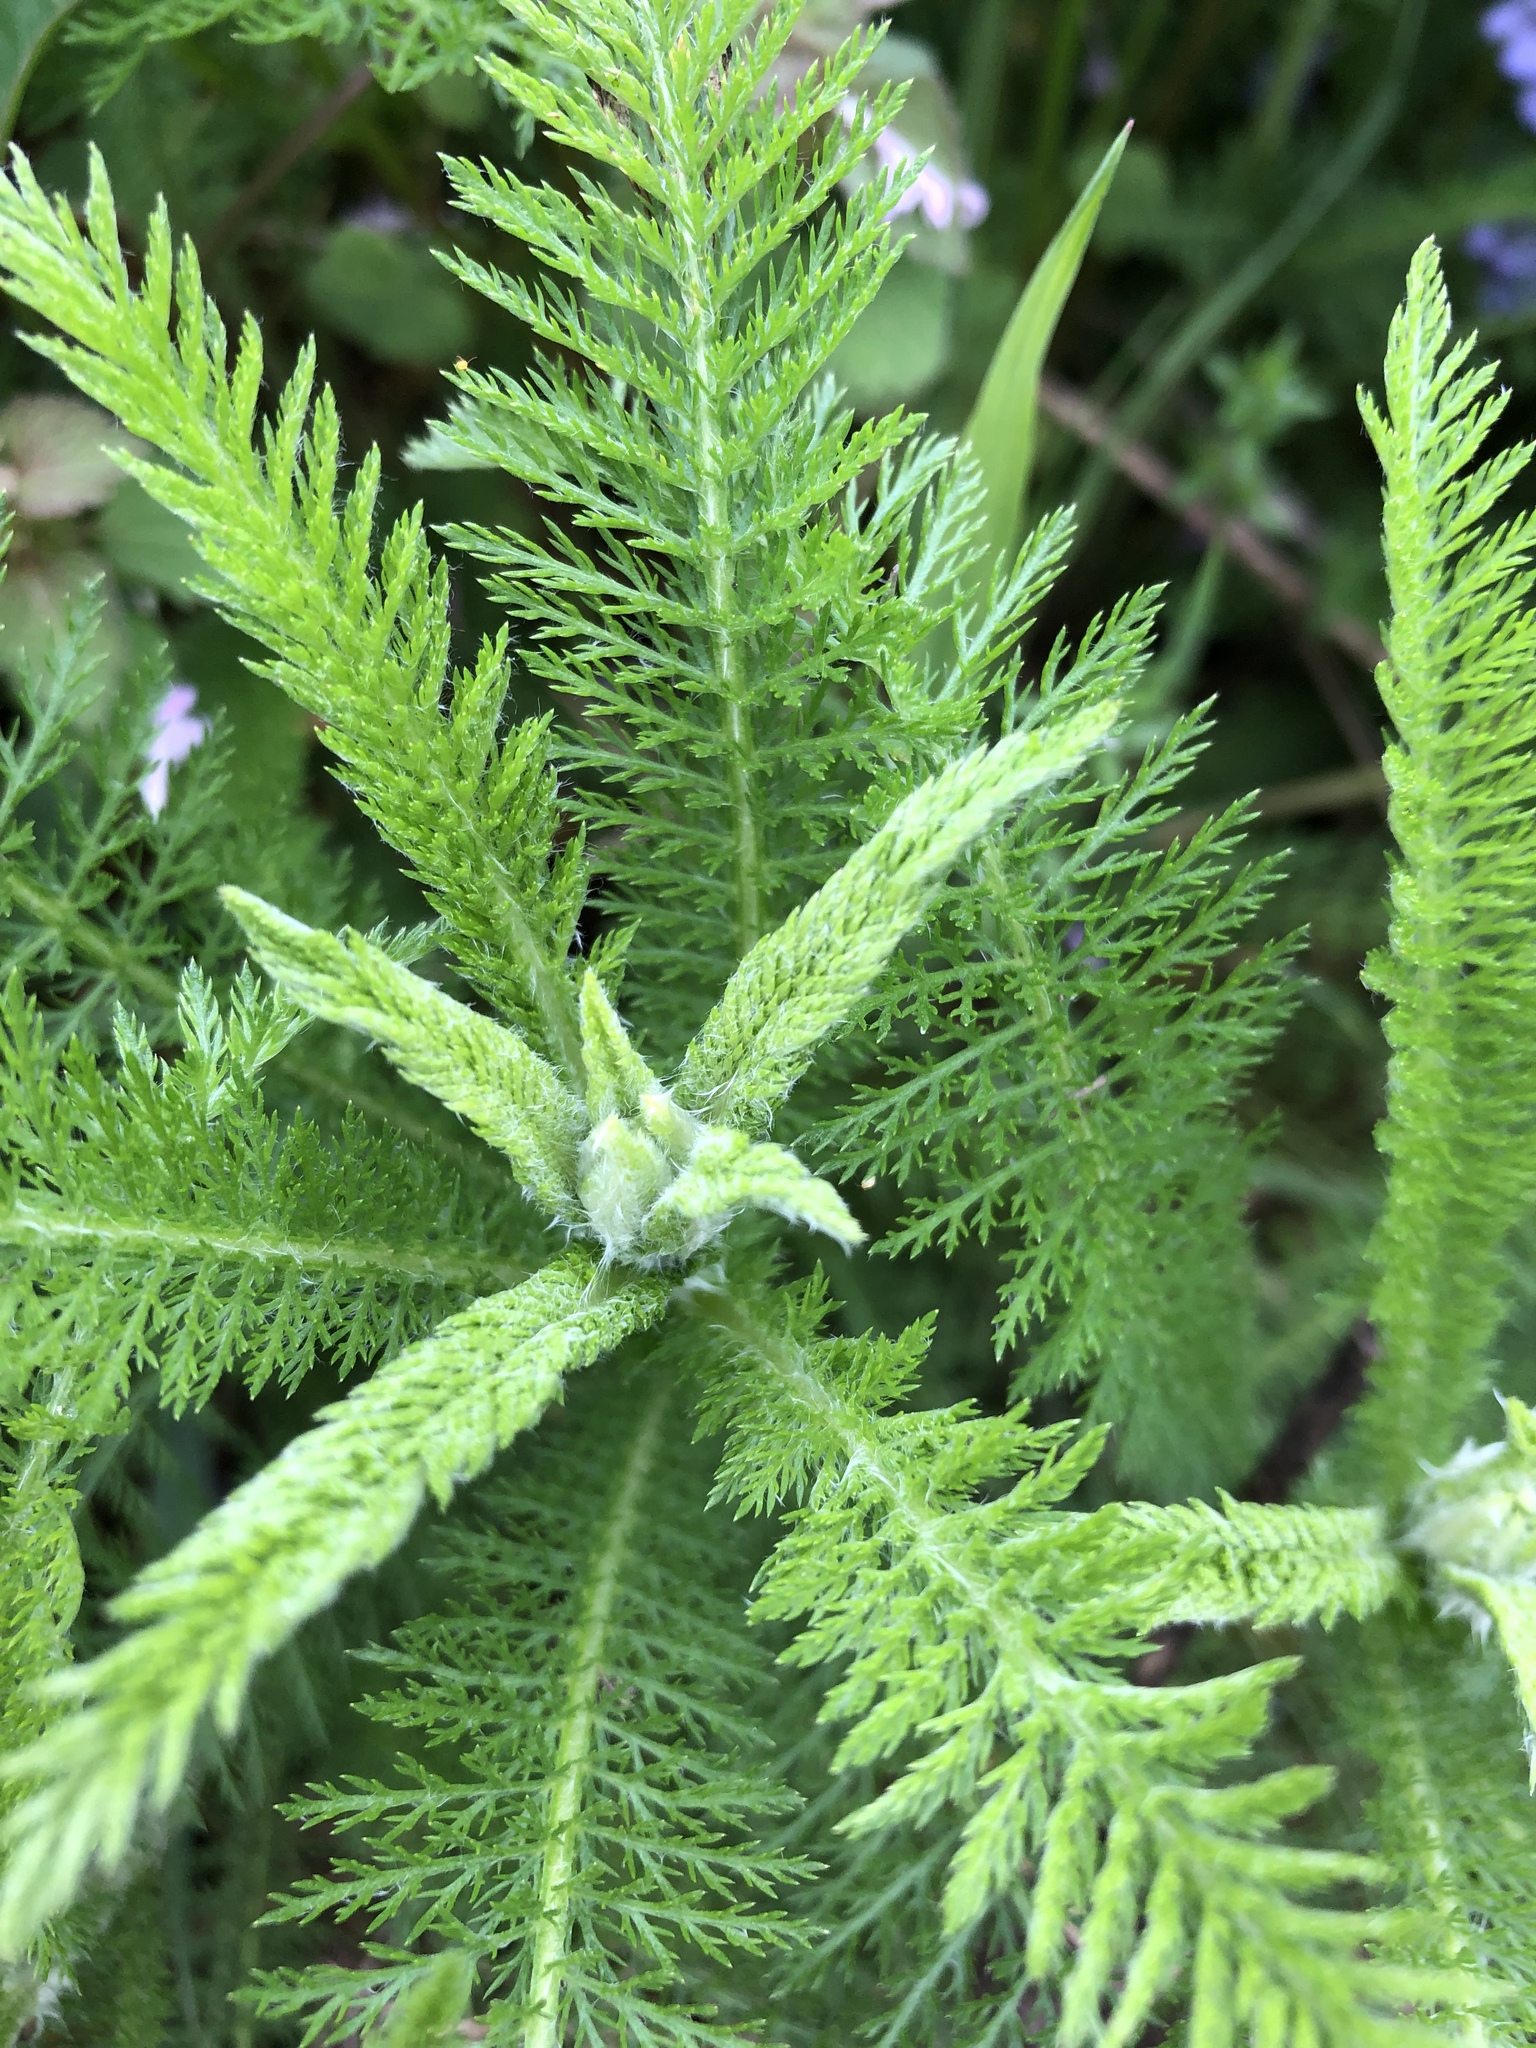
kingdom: Plantae
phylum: Tracheophyta
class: Magnoliopsida
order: Asterales
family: Asteraceae
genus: Achillea
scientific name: Achillea millefolium
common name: Yarrow
